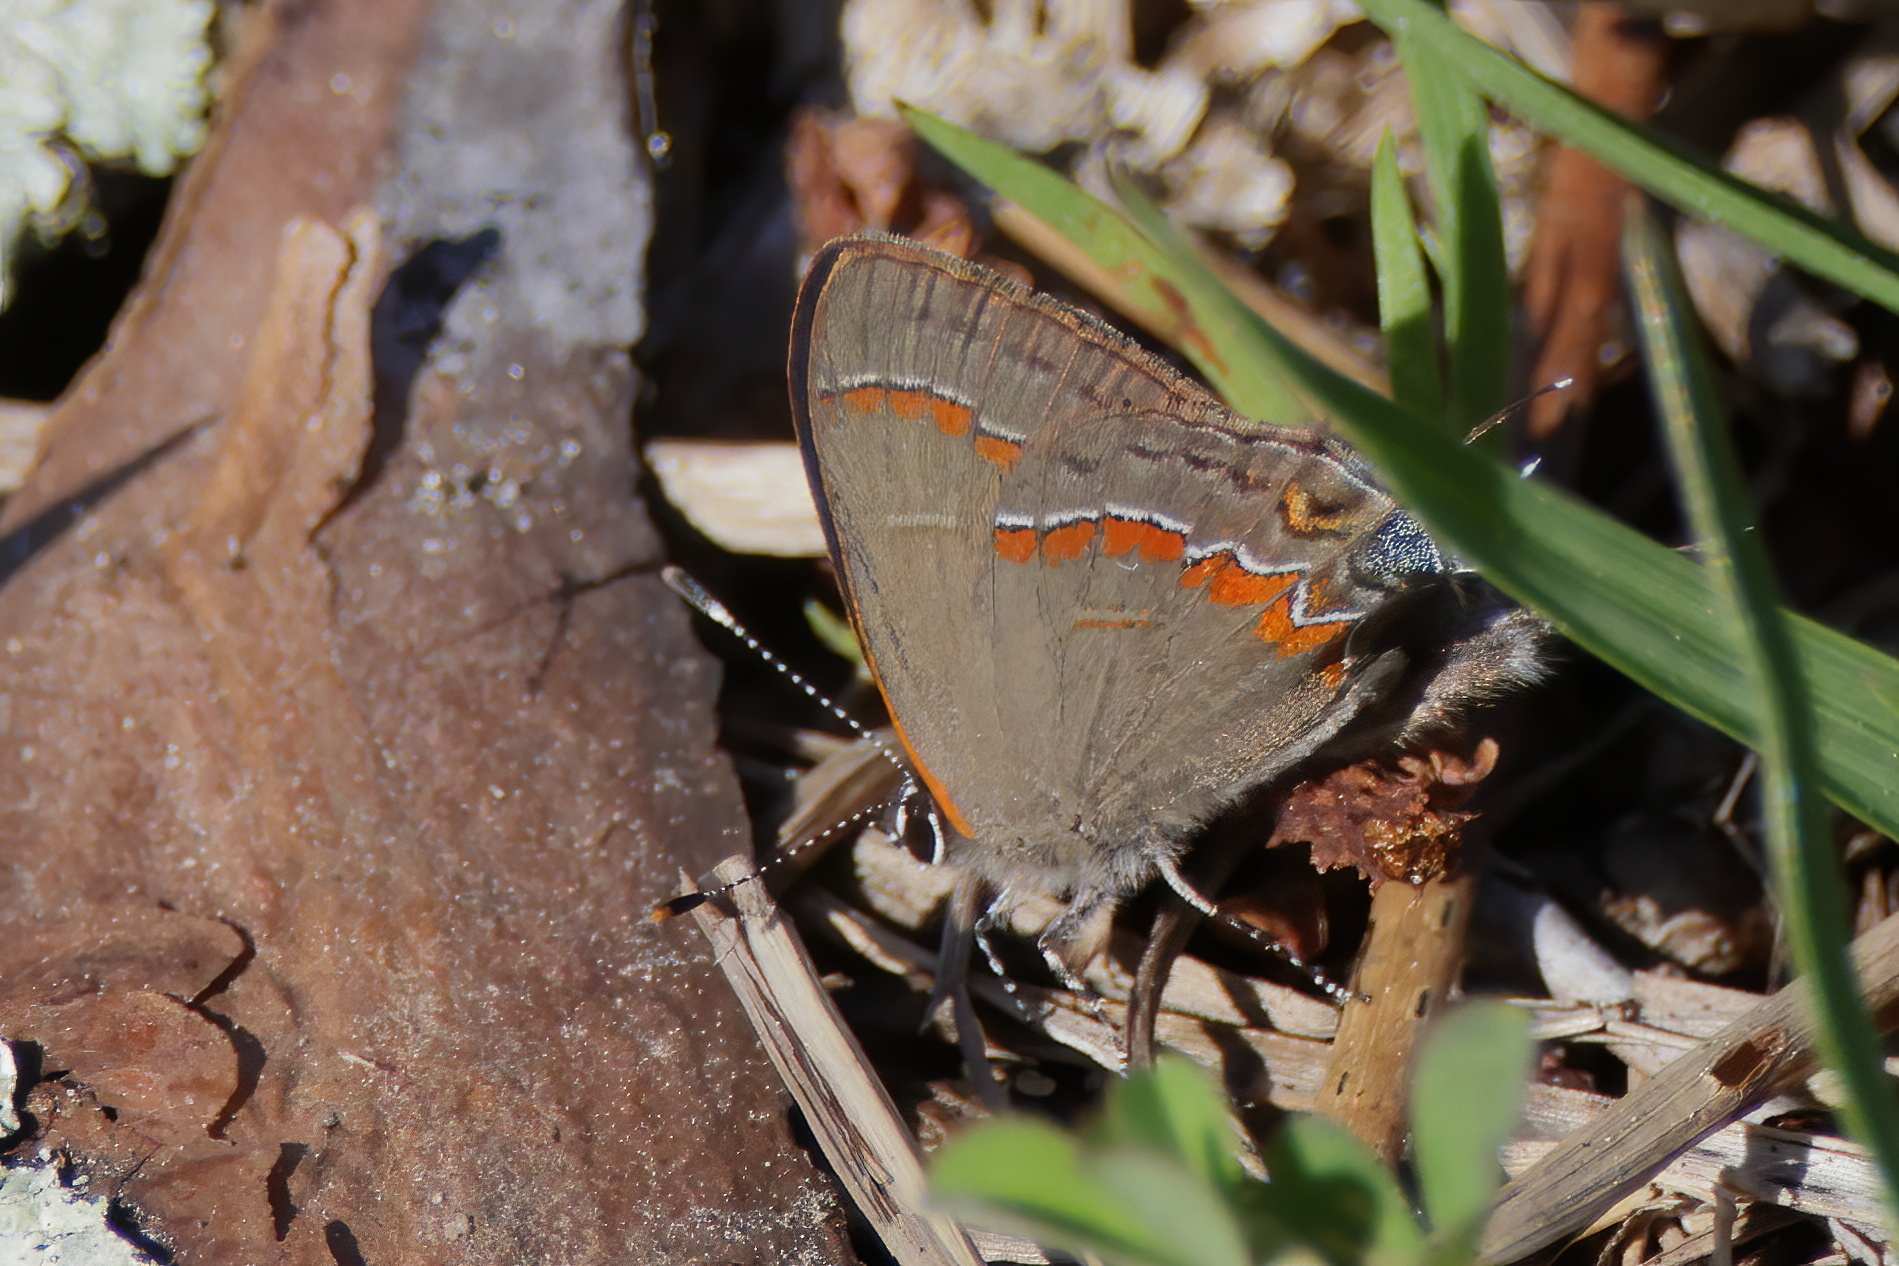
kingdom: Animalia
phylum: Arthropoda
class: Insecta
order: Lepidoptera
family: Lycaenidae
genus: Calycopis
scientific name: Calycopis cecrops
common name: Red-banded hairstreak
